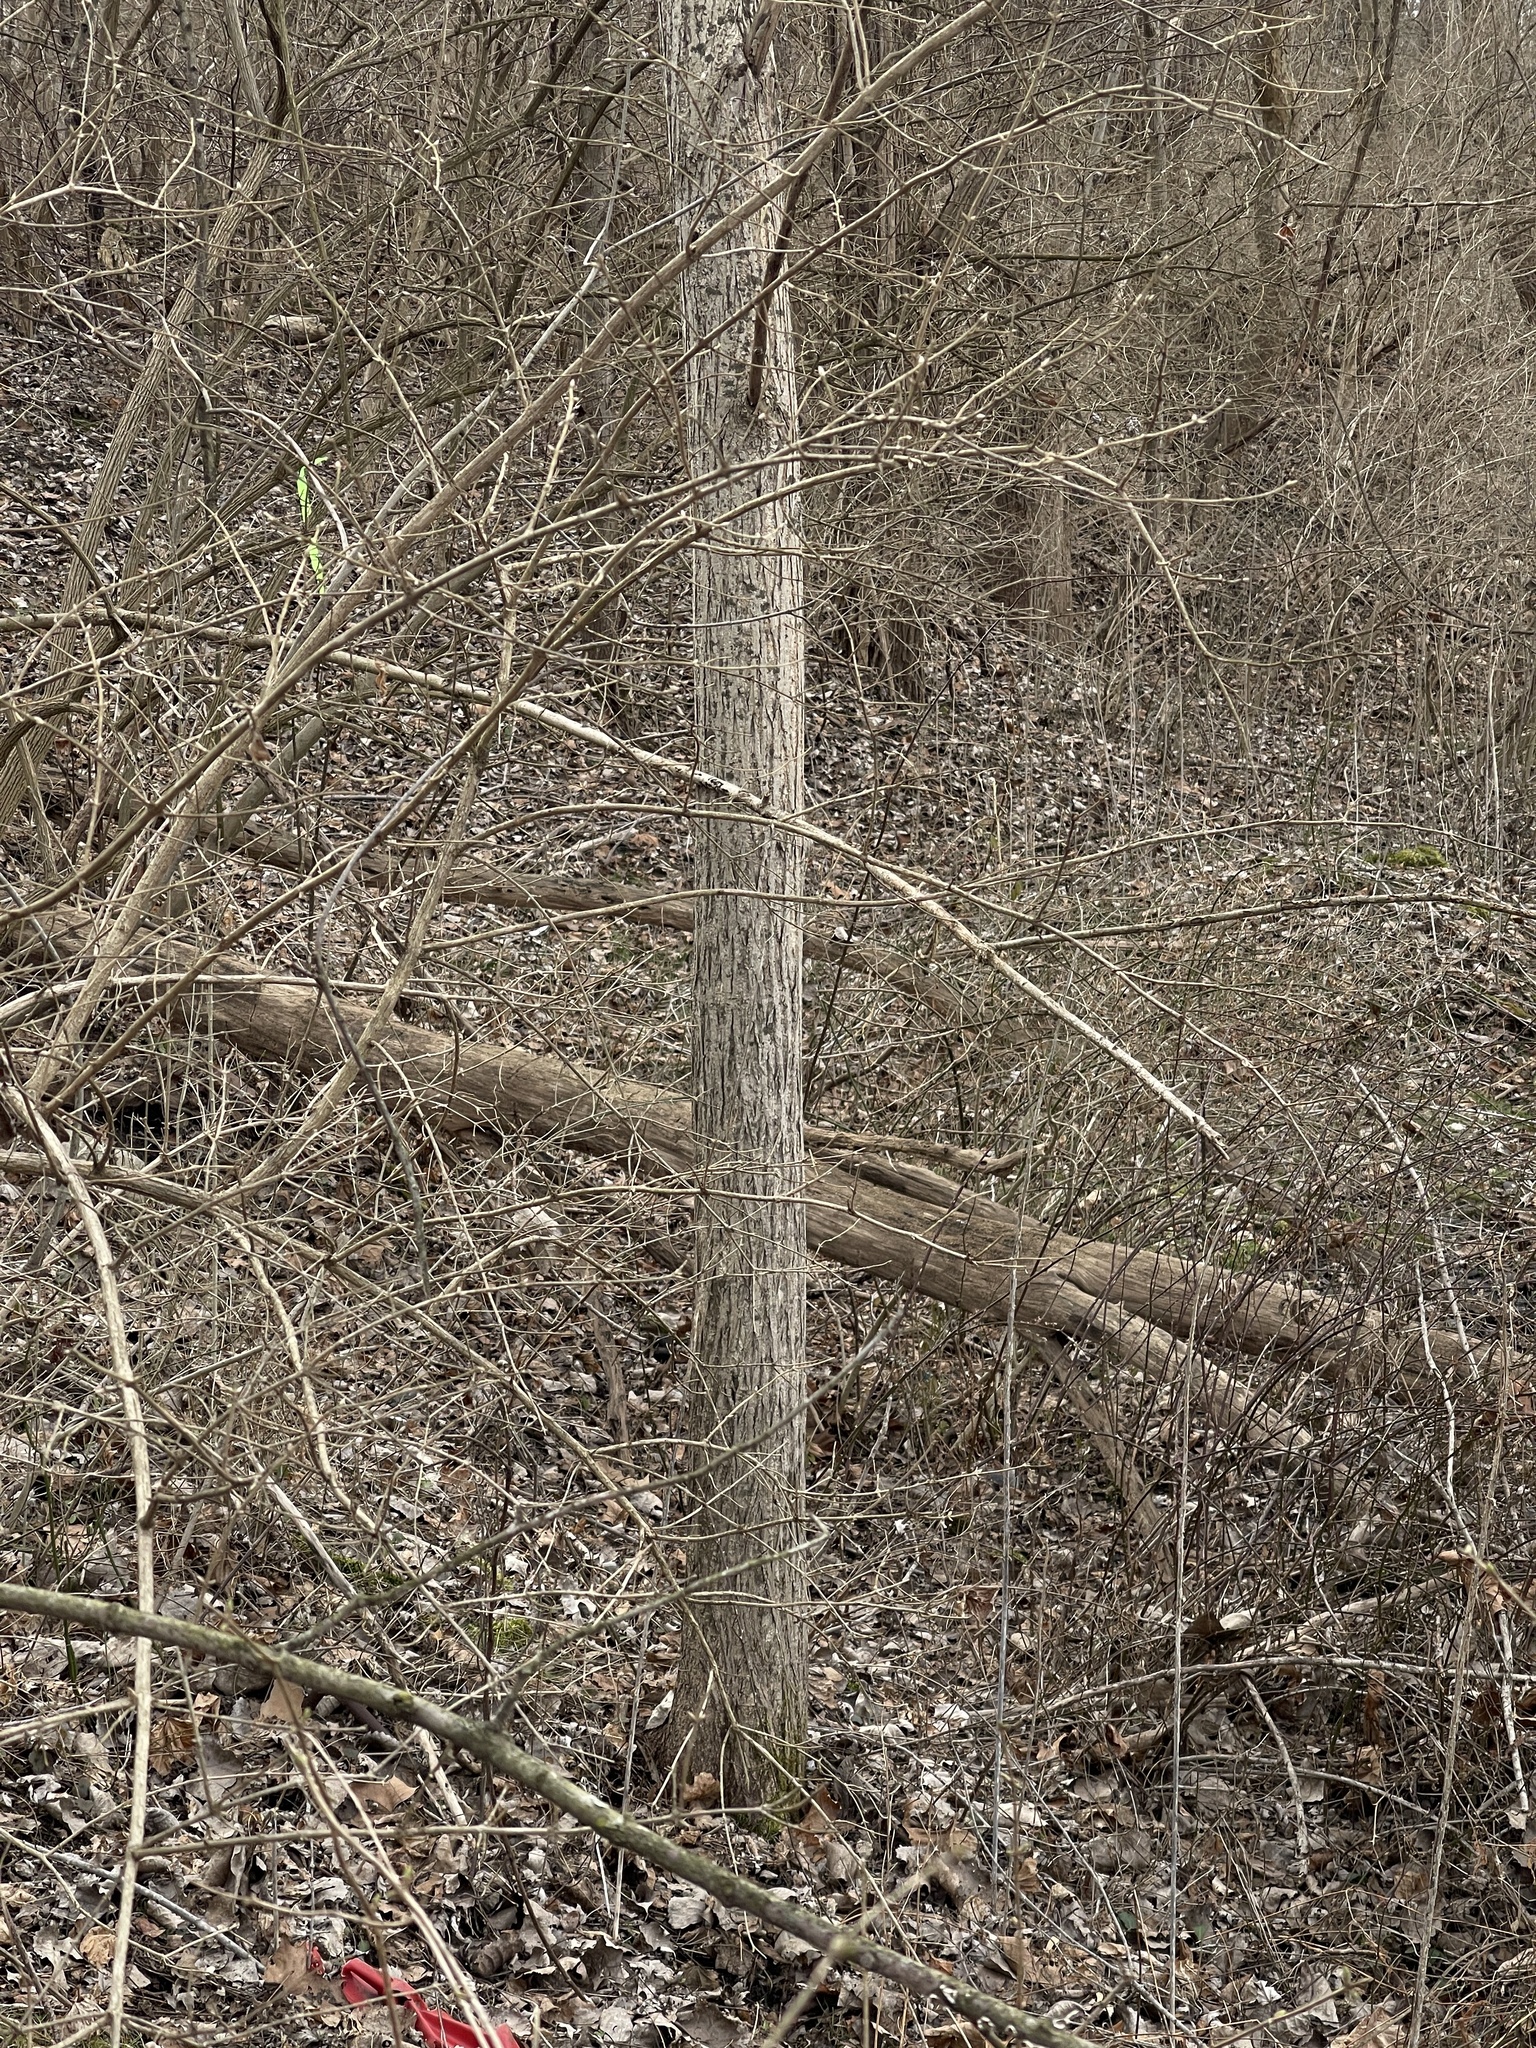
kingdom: Plantae
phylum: Tracheophyta
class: Magnoliopsida
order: Fagales
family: Juglandaceae
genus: Juglans
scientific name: Juglans cinerea
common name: Butternut
